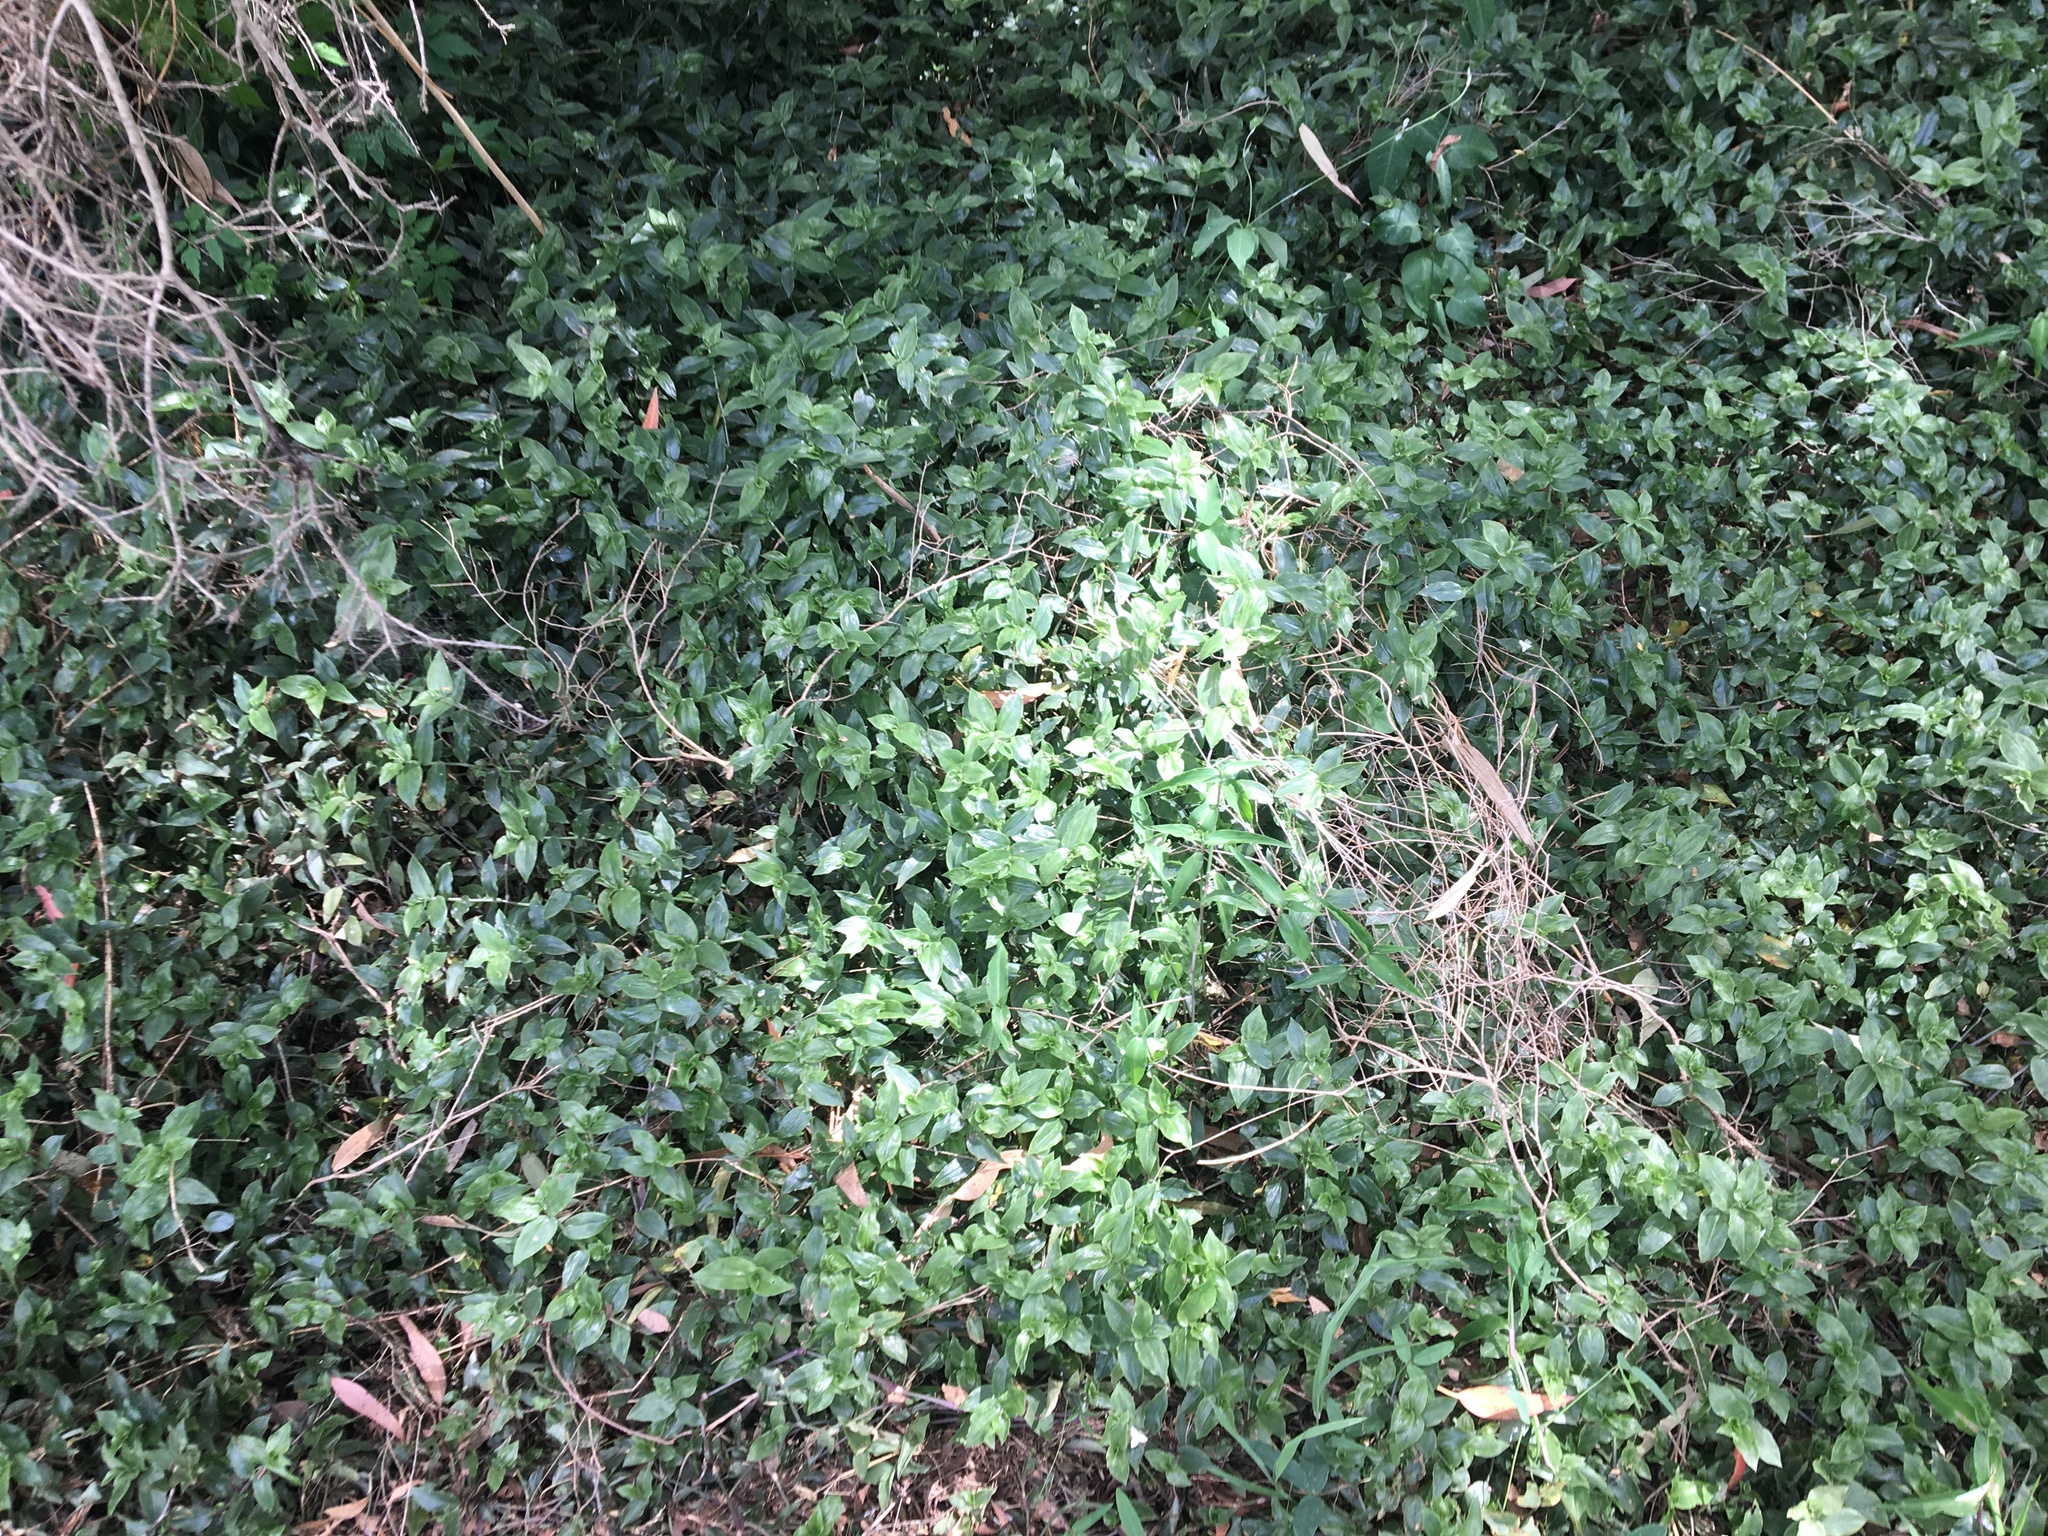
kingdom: Plantae
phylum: Tracheophyta
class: Liliopsida
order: Commelinales
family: Commelinaceae
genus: Tradescantia
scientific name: Tradescantia fluminensis
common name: Wandering-jew
